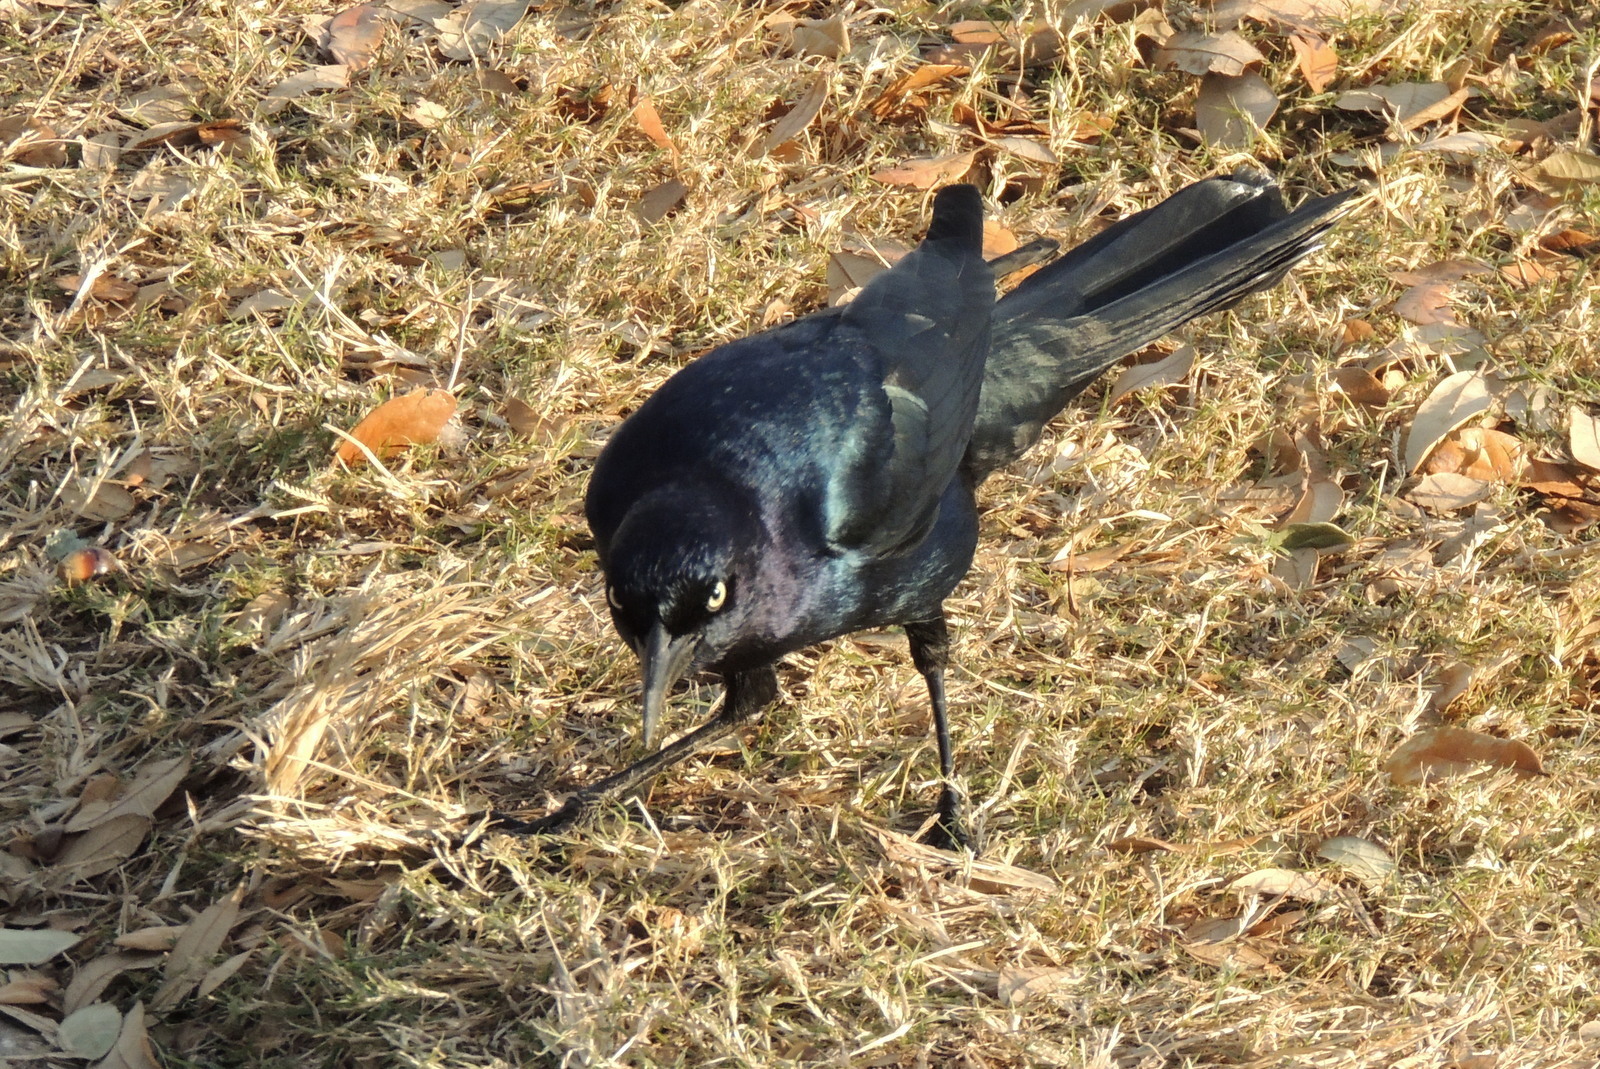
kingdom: Animalia
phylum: Chordata
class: Aves
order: Passeriformes
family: Icteridae
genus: Quiscalus
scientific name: Quiscalus major
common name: Boat-tailed grackle
